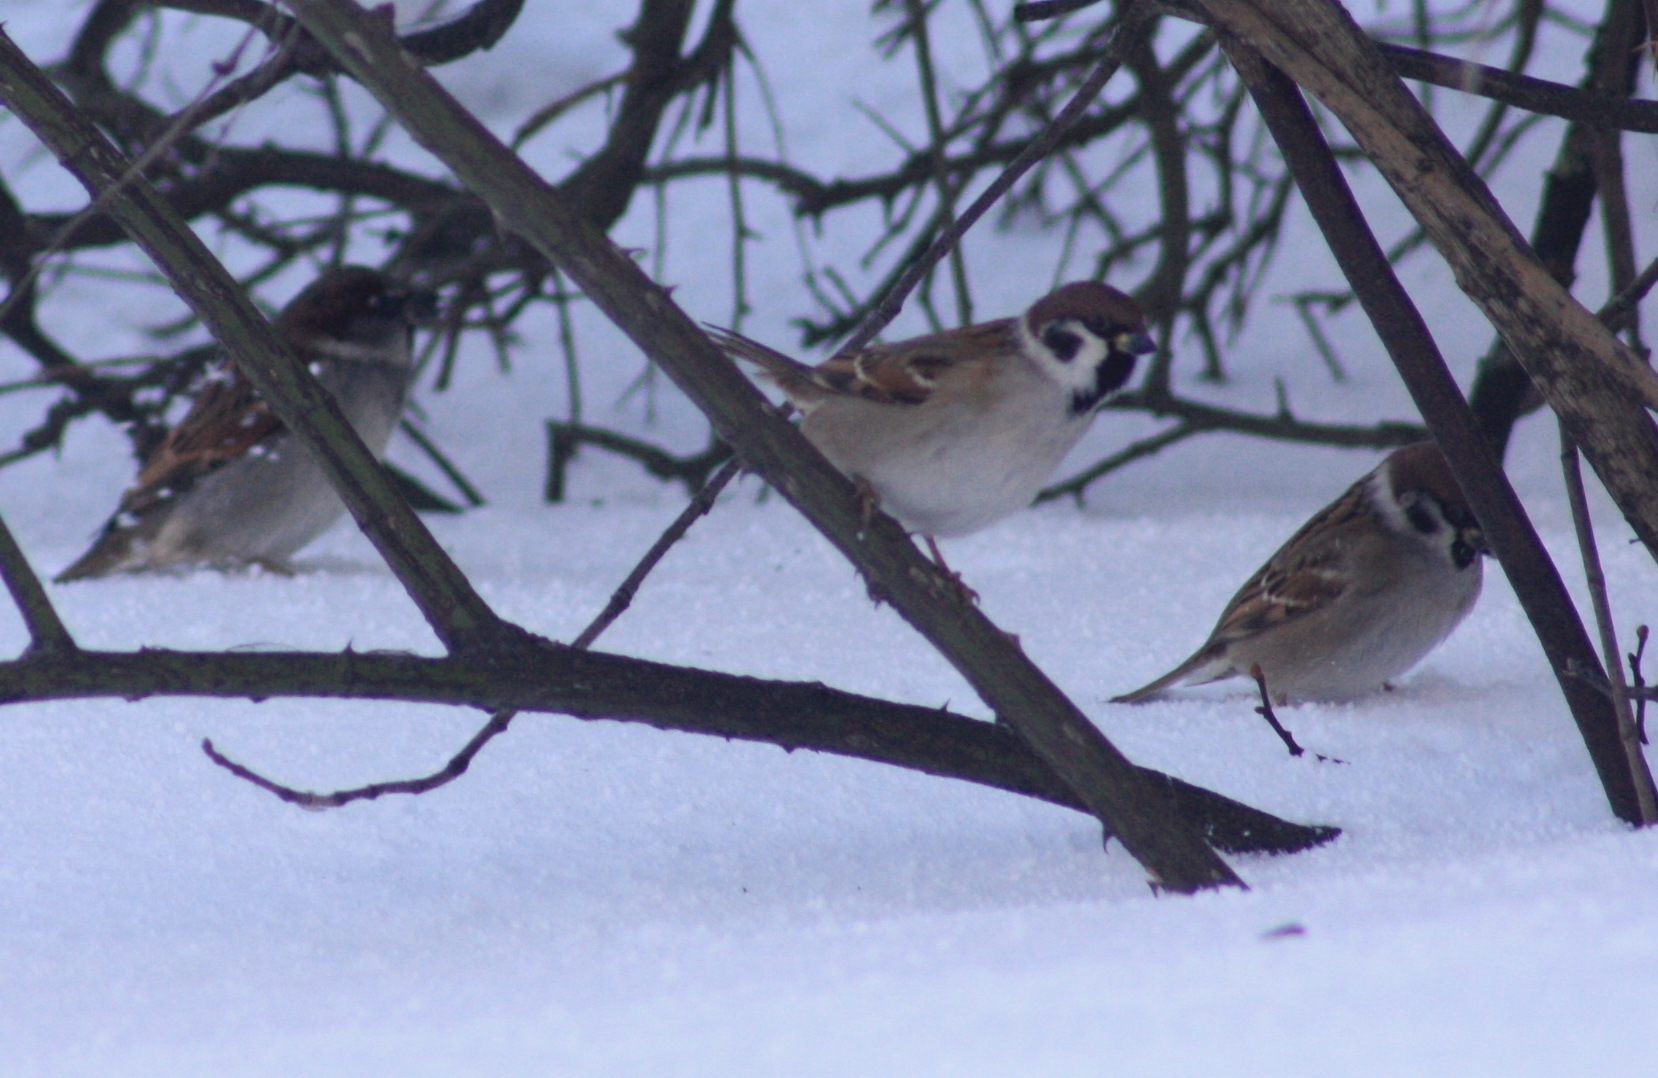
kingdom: Animalia
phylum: Chordata
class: Aves
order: Passeriformes
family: Passeridae
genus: Passer
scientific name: Passer montanus
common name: Eurasian tree sparrow
